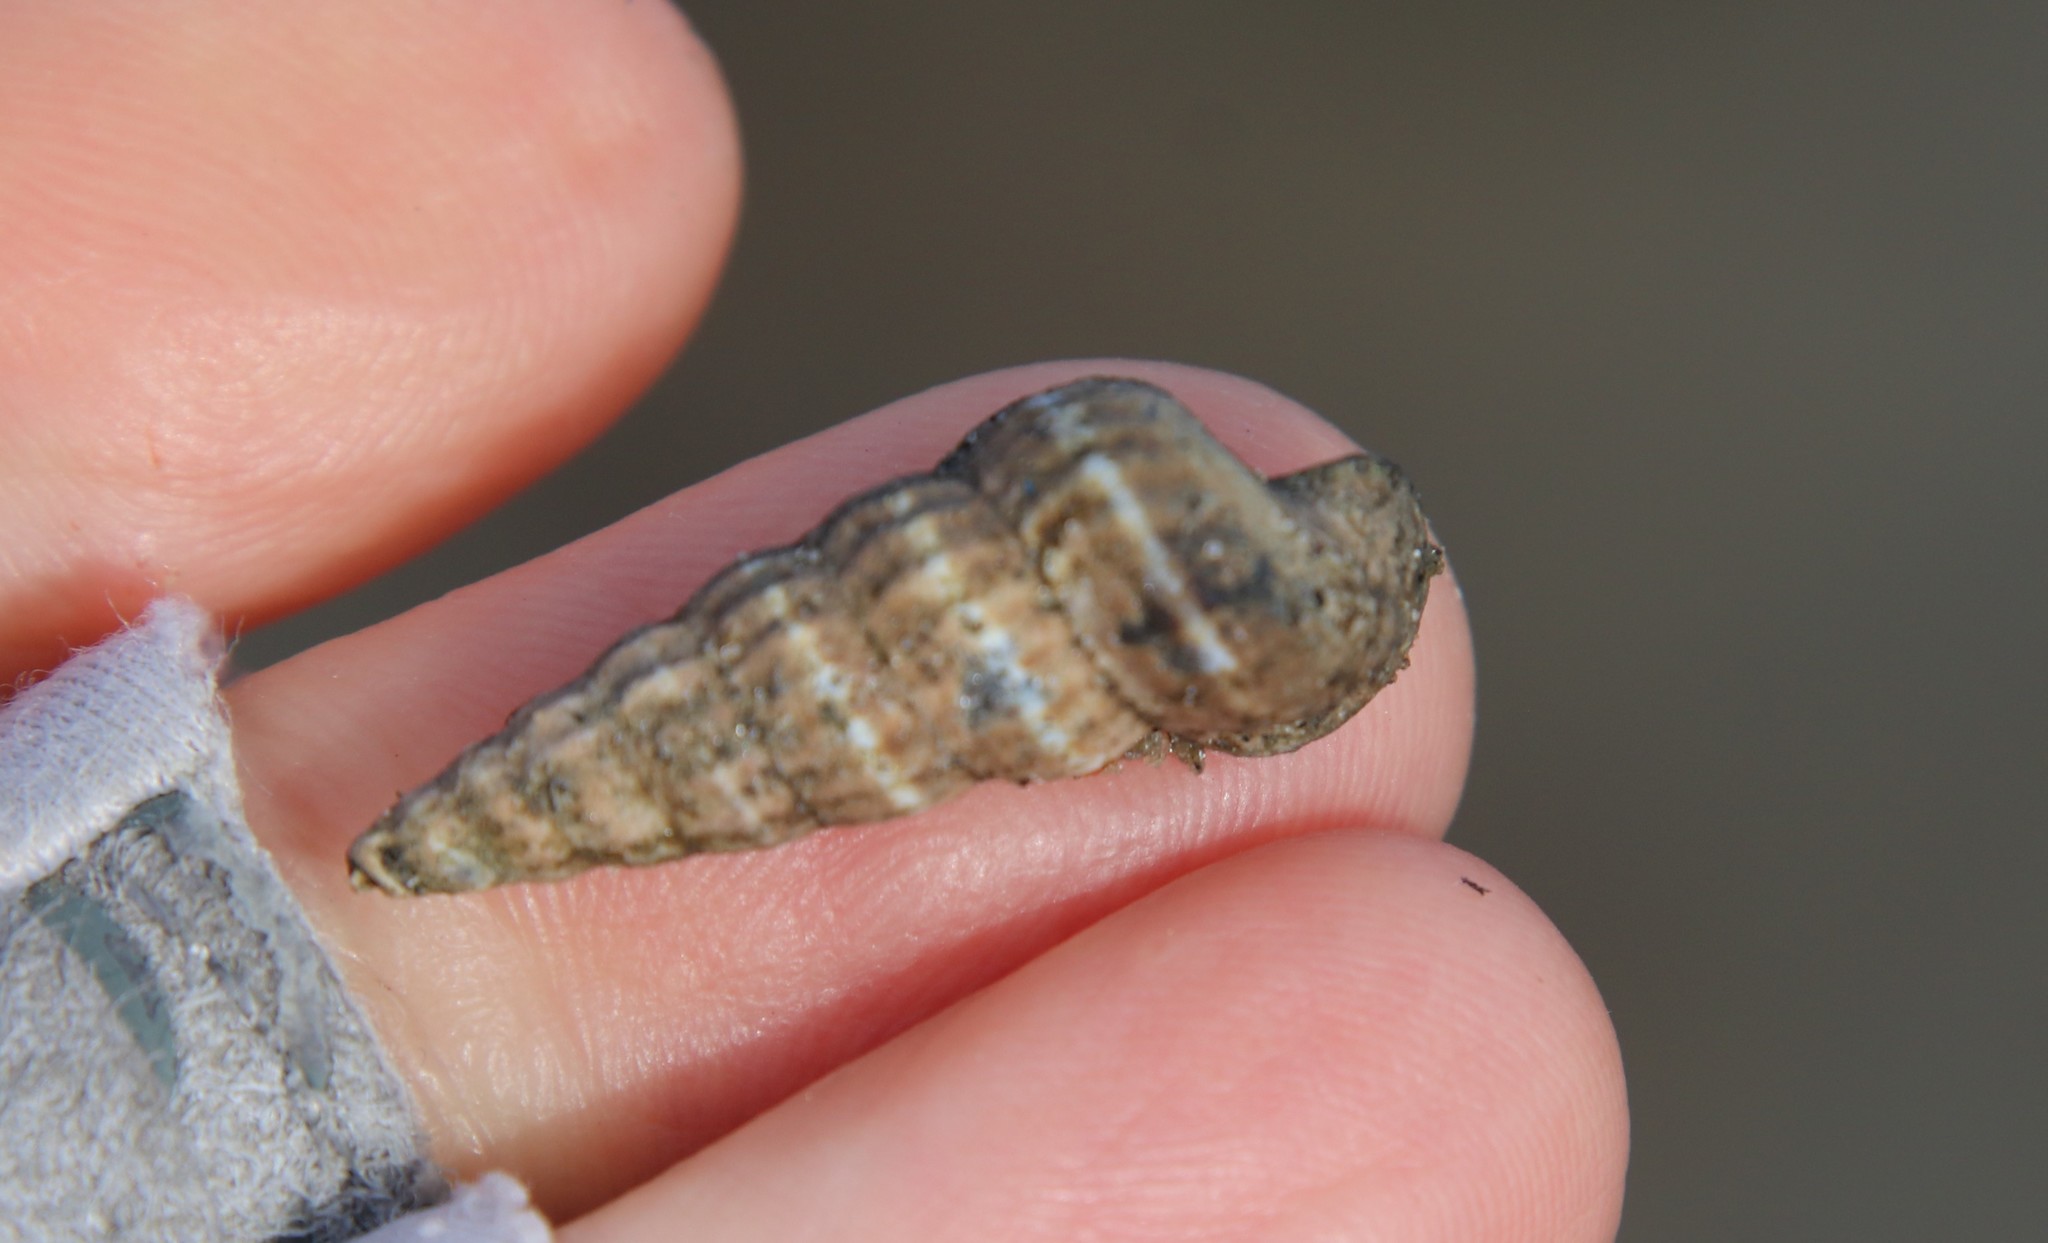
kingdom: Animalia
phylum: Mollusca
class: Gastropoda
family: Potamididae
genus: Cerithideopsis
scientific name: Cerithideopsis californica
